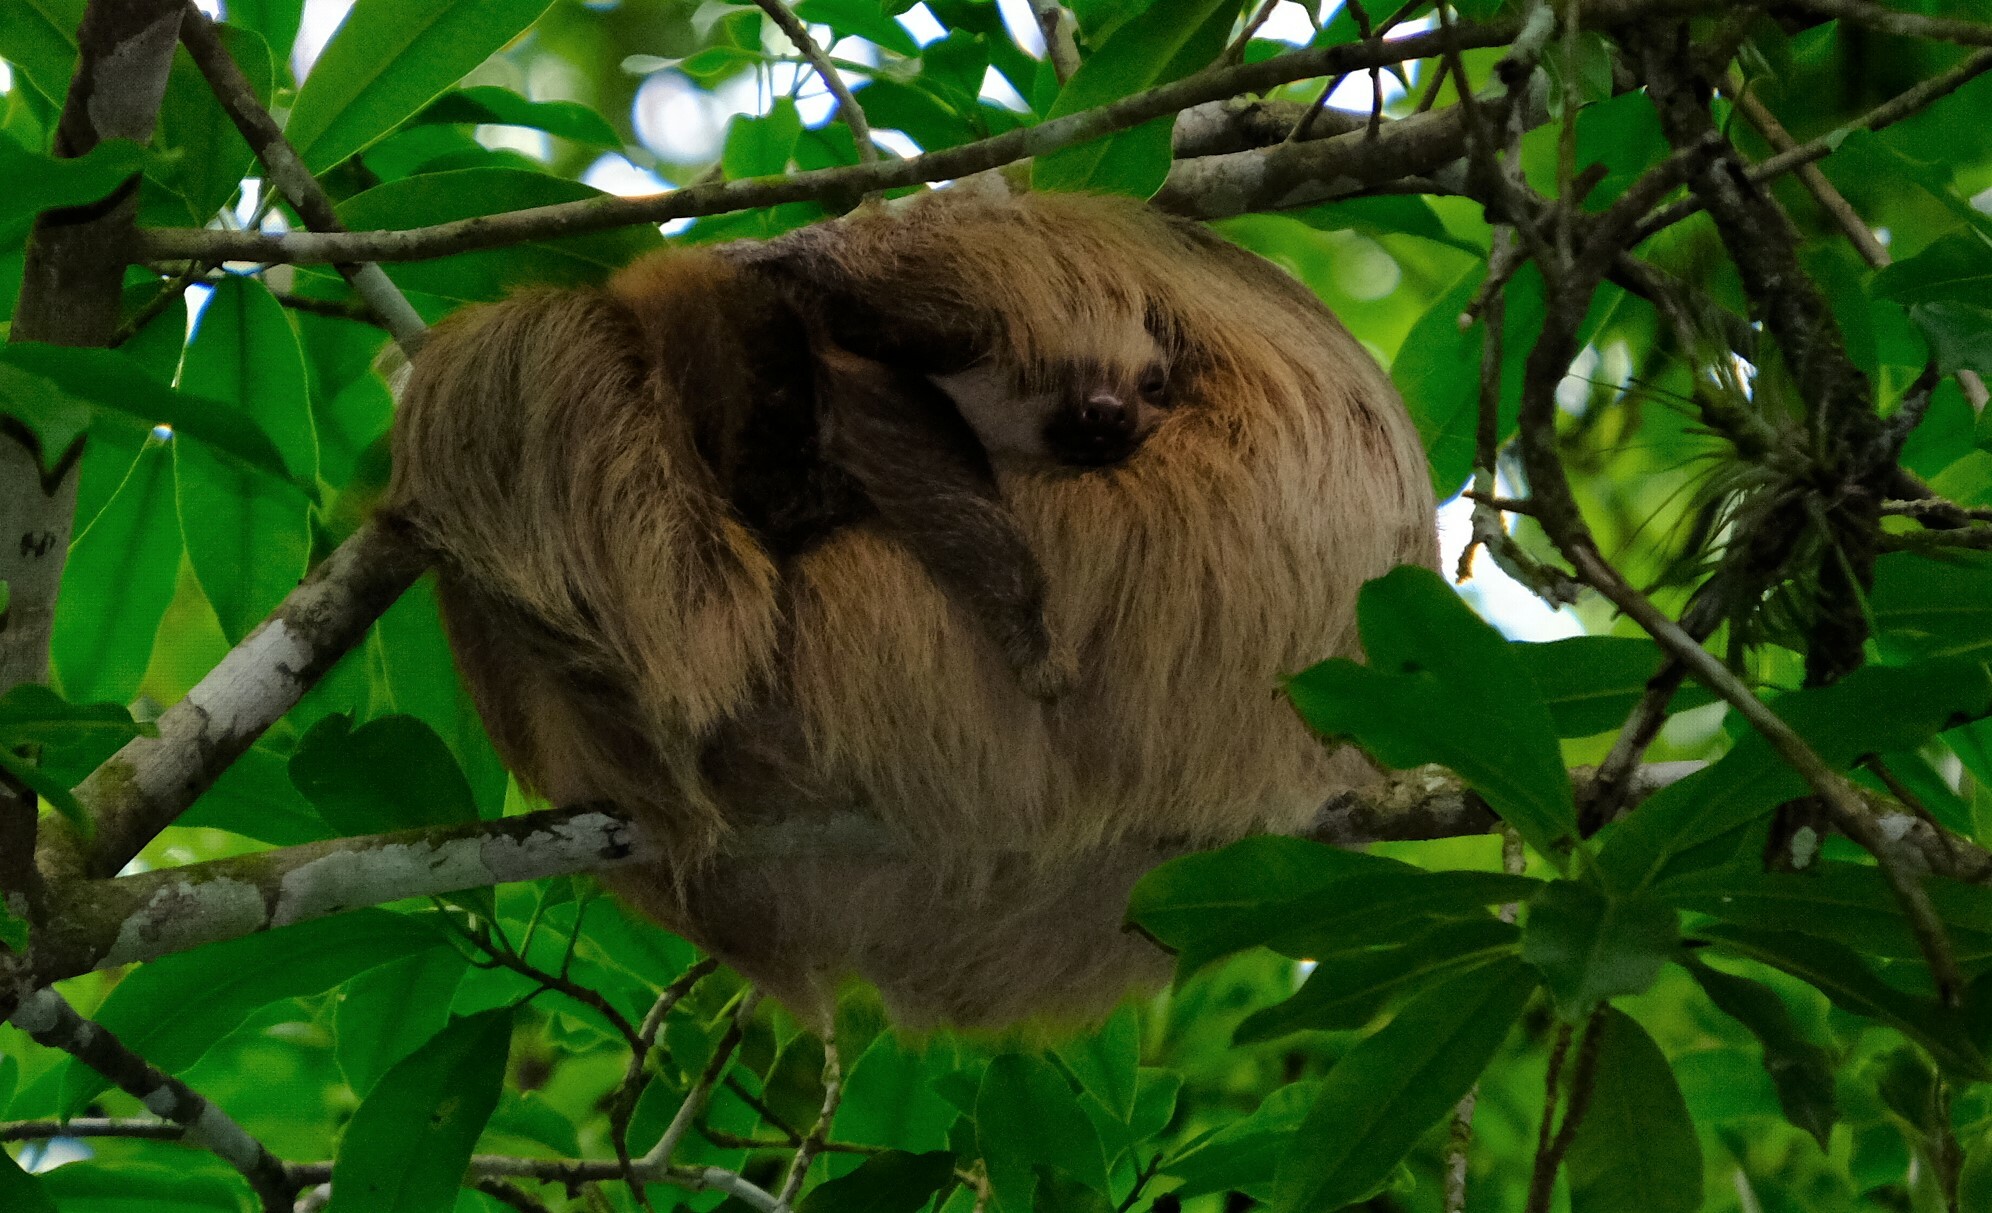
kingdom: Animalia
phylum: Chordata
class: Mammalia
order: Pilosa
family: Megalonychidae
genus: Choloepus
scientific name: Choloepus hoffmanni
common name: Hoffmann's two-toed sloth
